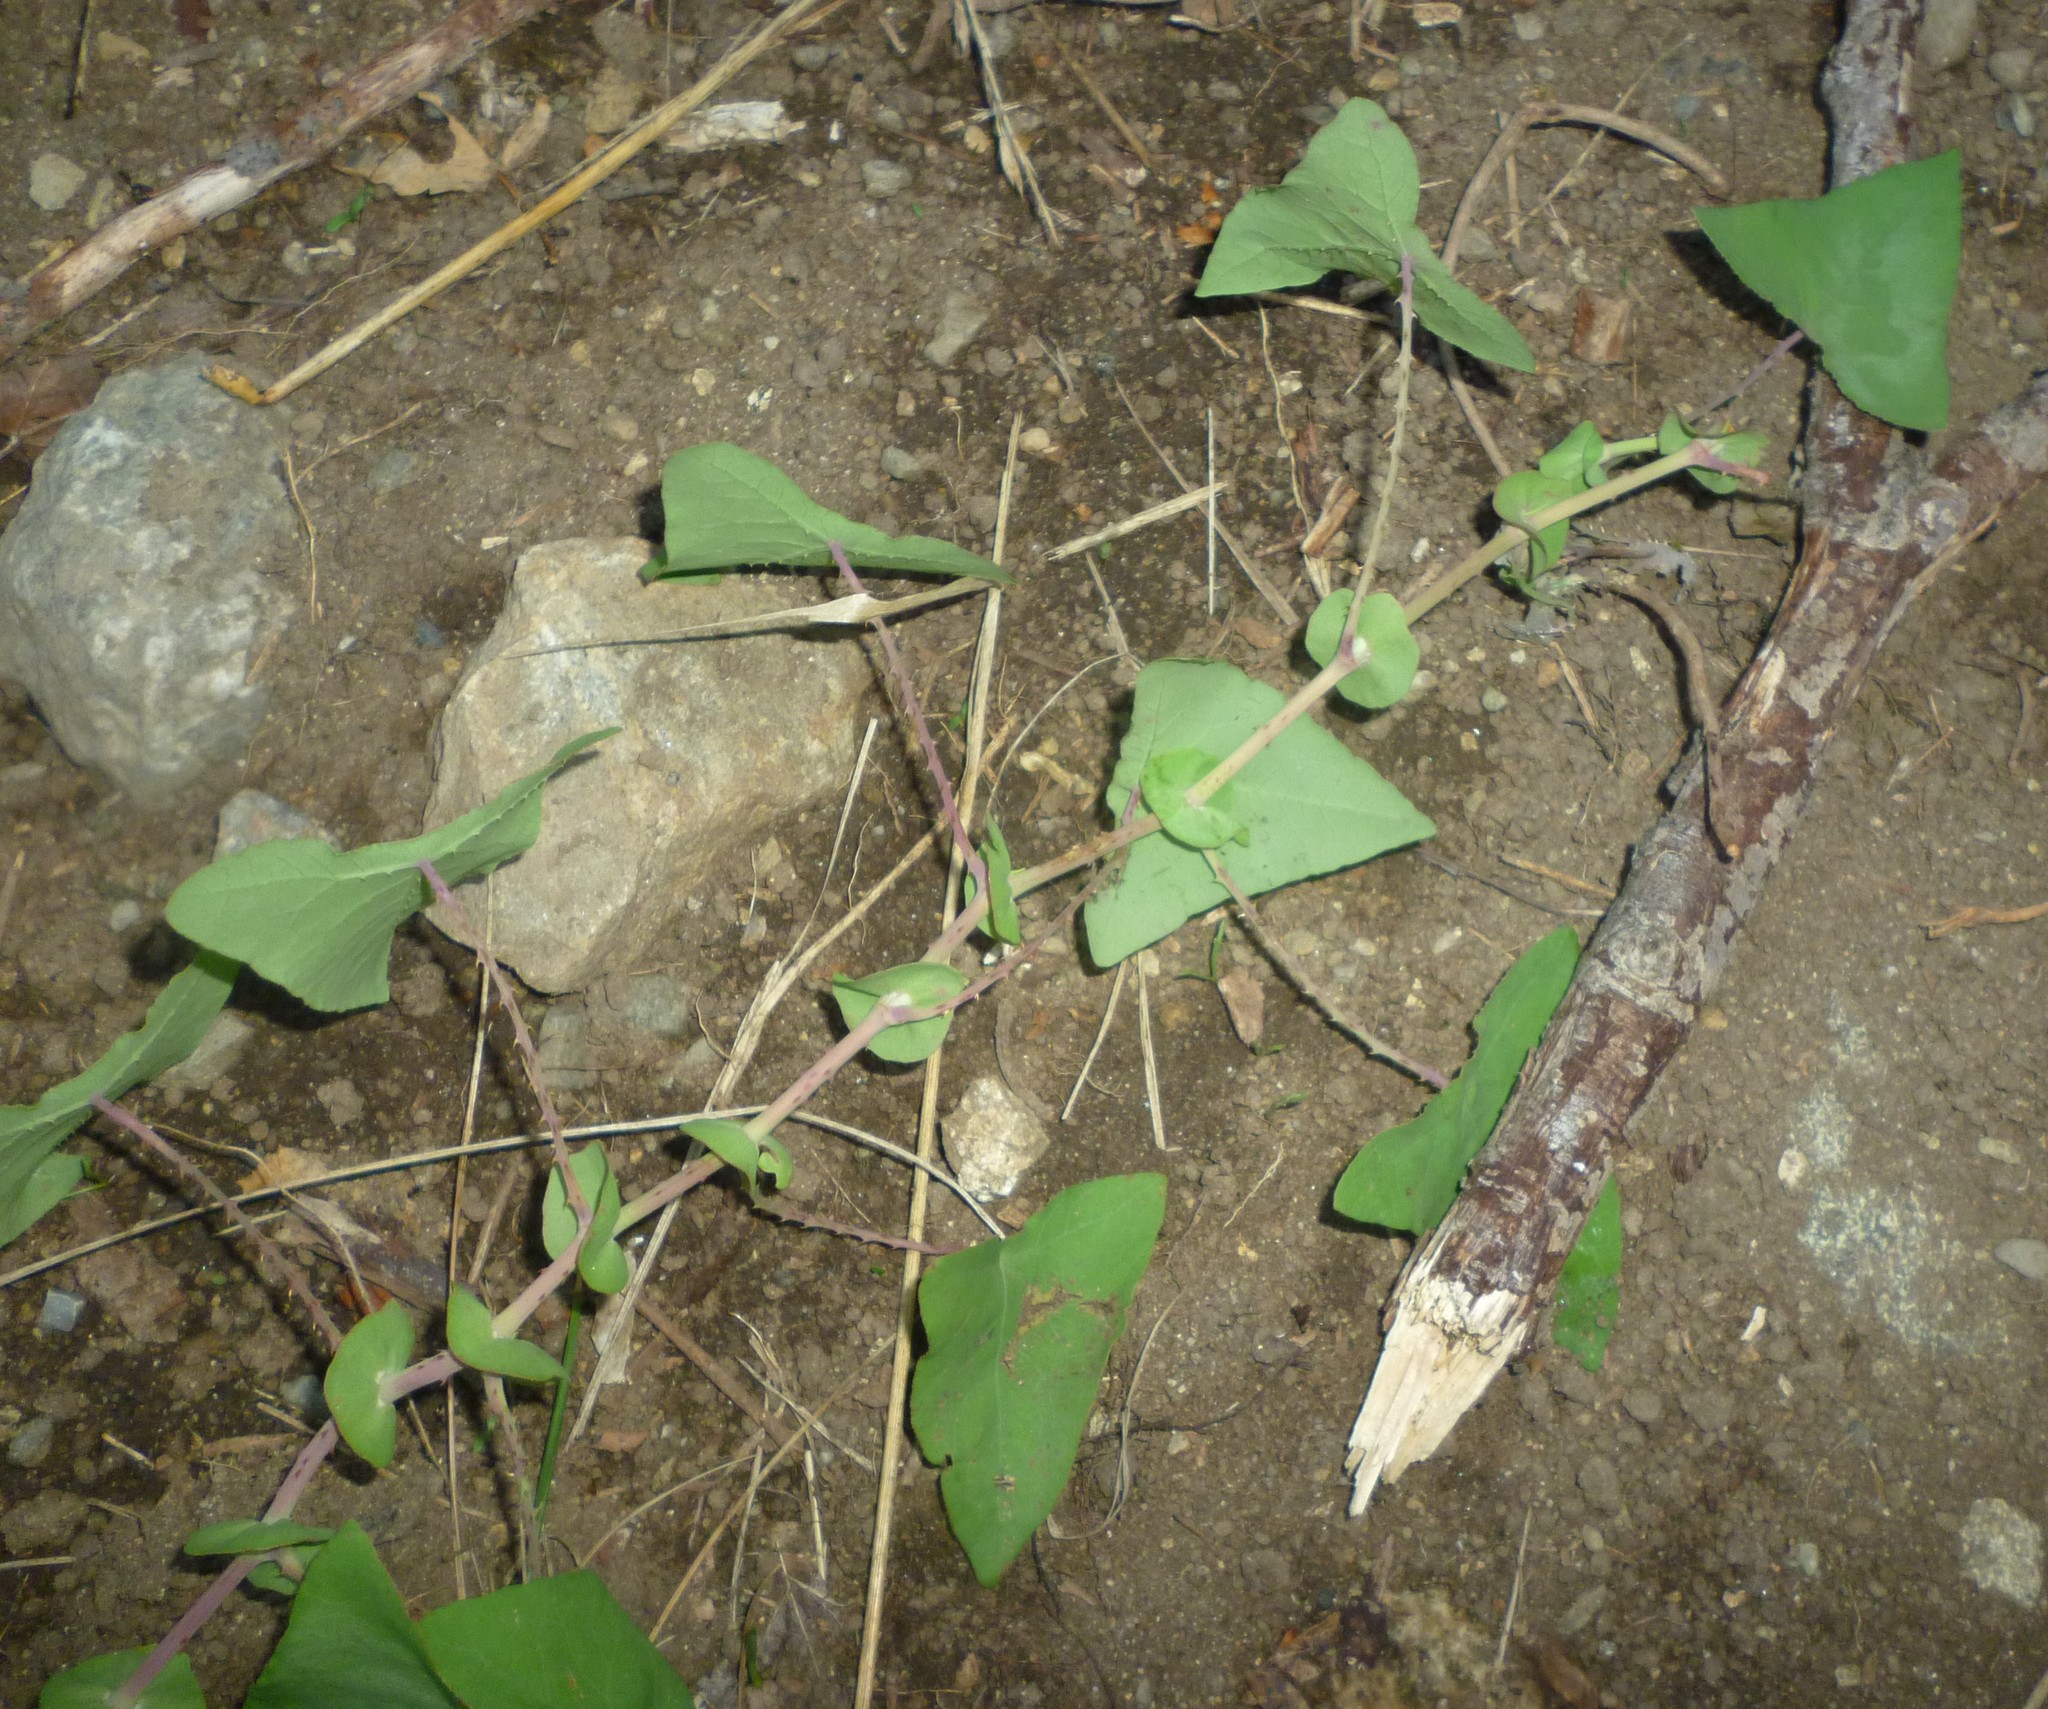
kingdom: Plantae
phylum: Tracheophyta
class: Magnoliopsida
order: Caryophyllales
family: Polygonaceae
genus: Persicaria
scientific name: Persicaria perfoliata
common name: Asiatic tearthumb
